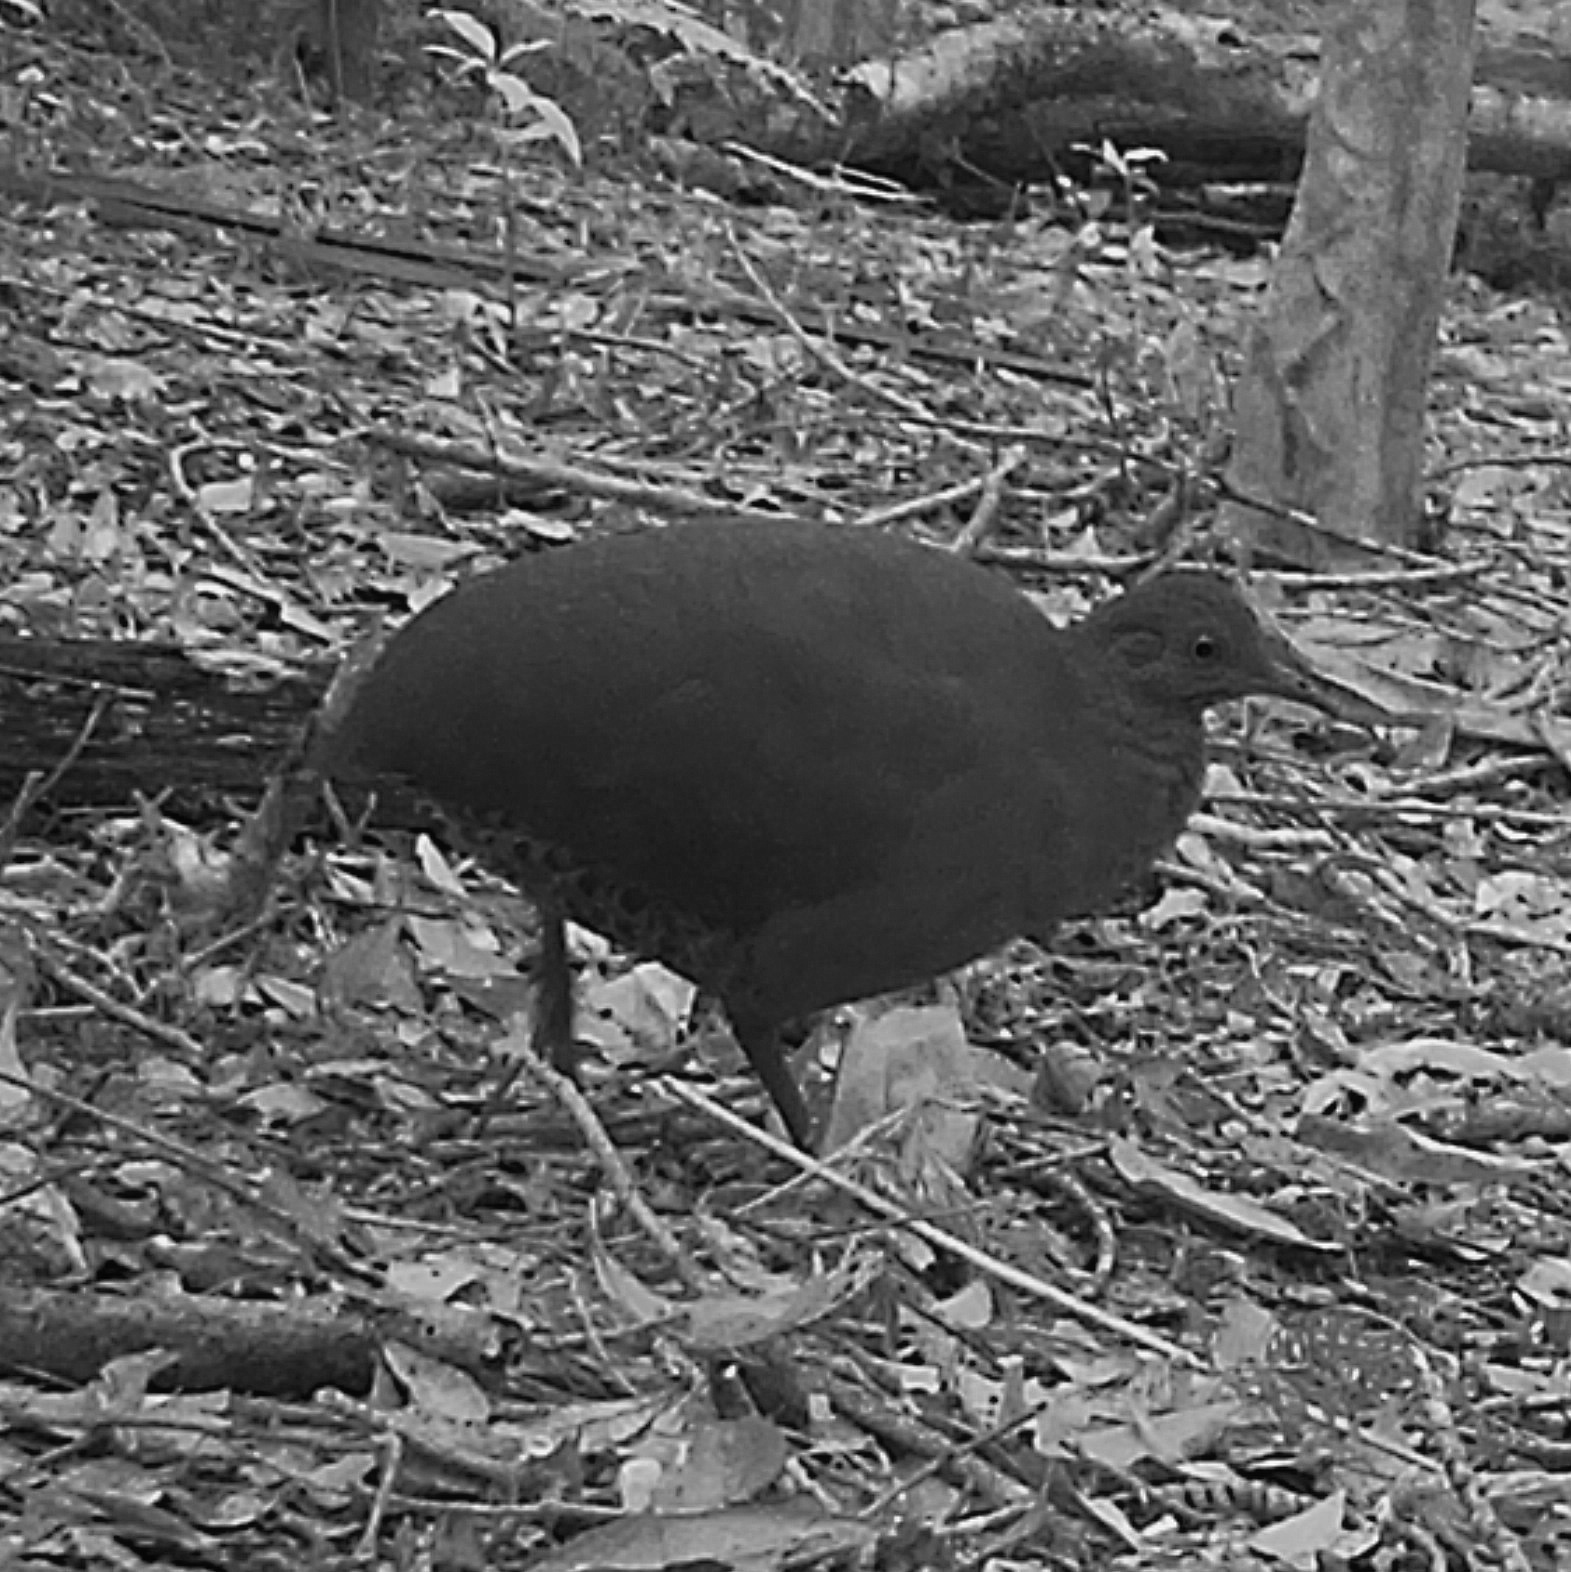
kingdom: Animalia
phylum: Chordata
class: Aves
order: Tinamiformes
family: Tinamidae
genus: Crypturellus
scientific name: Crypturellus obsoletus
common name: Brown tinamou
